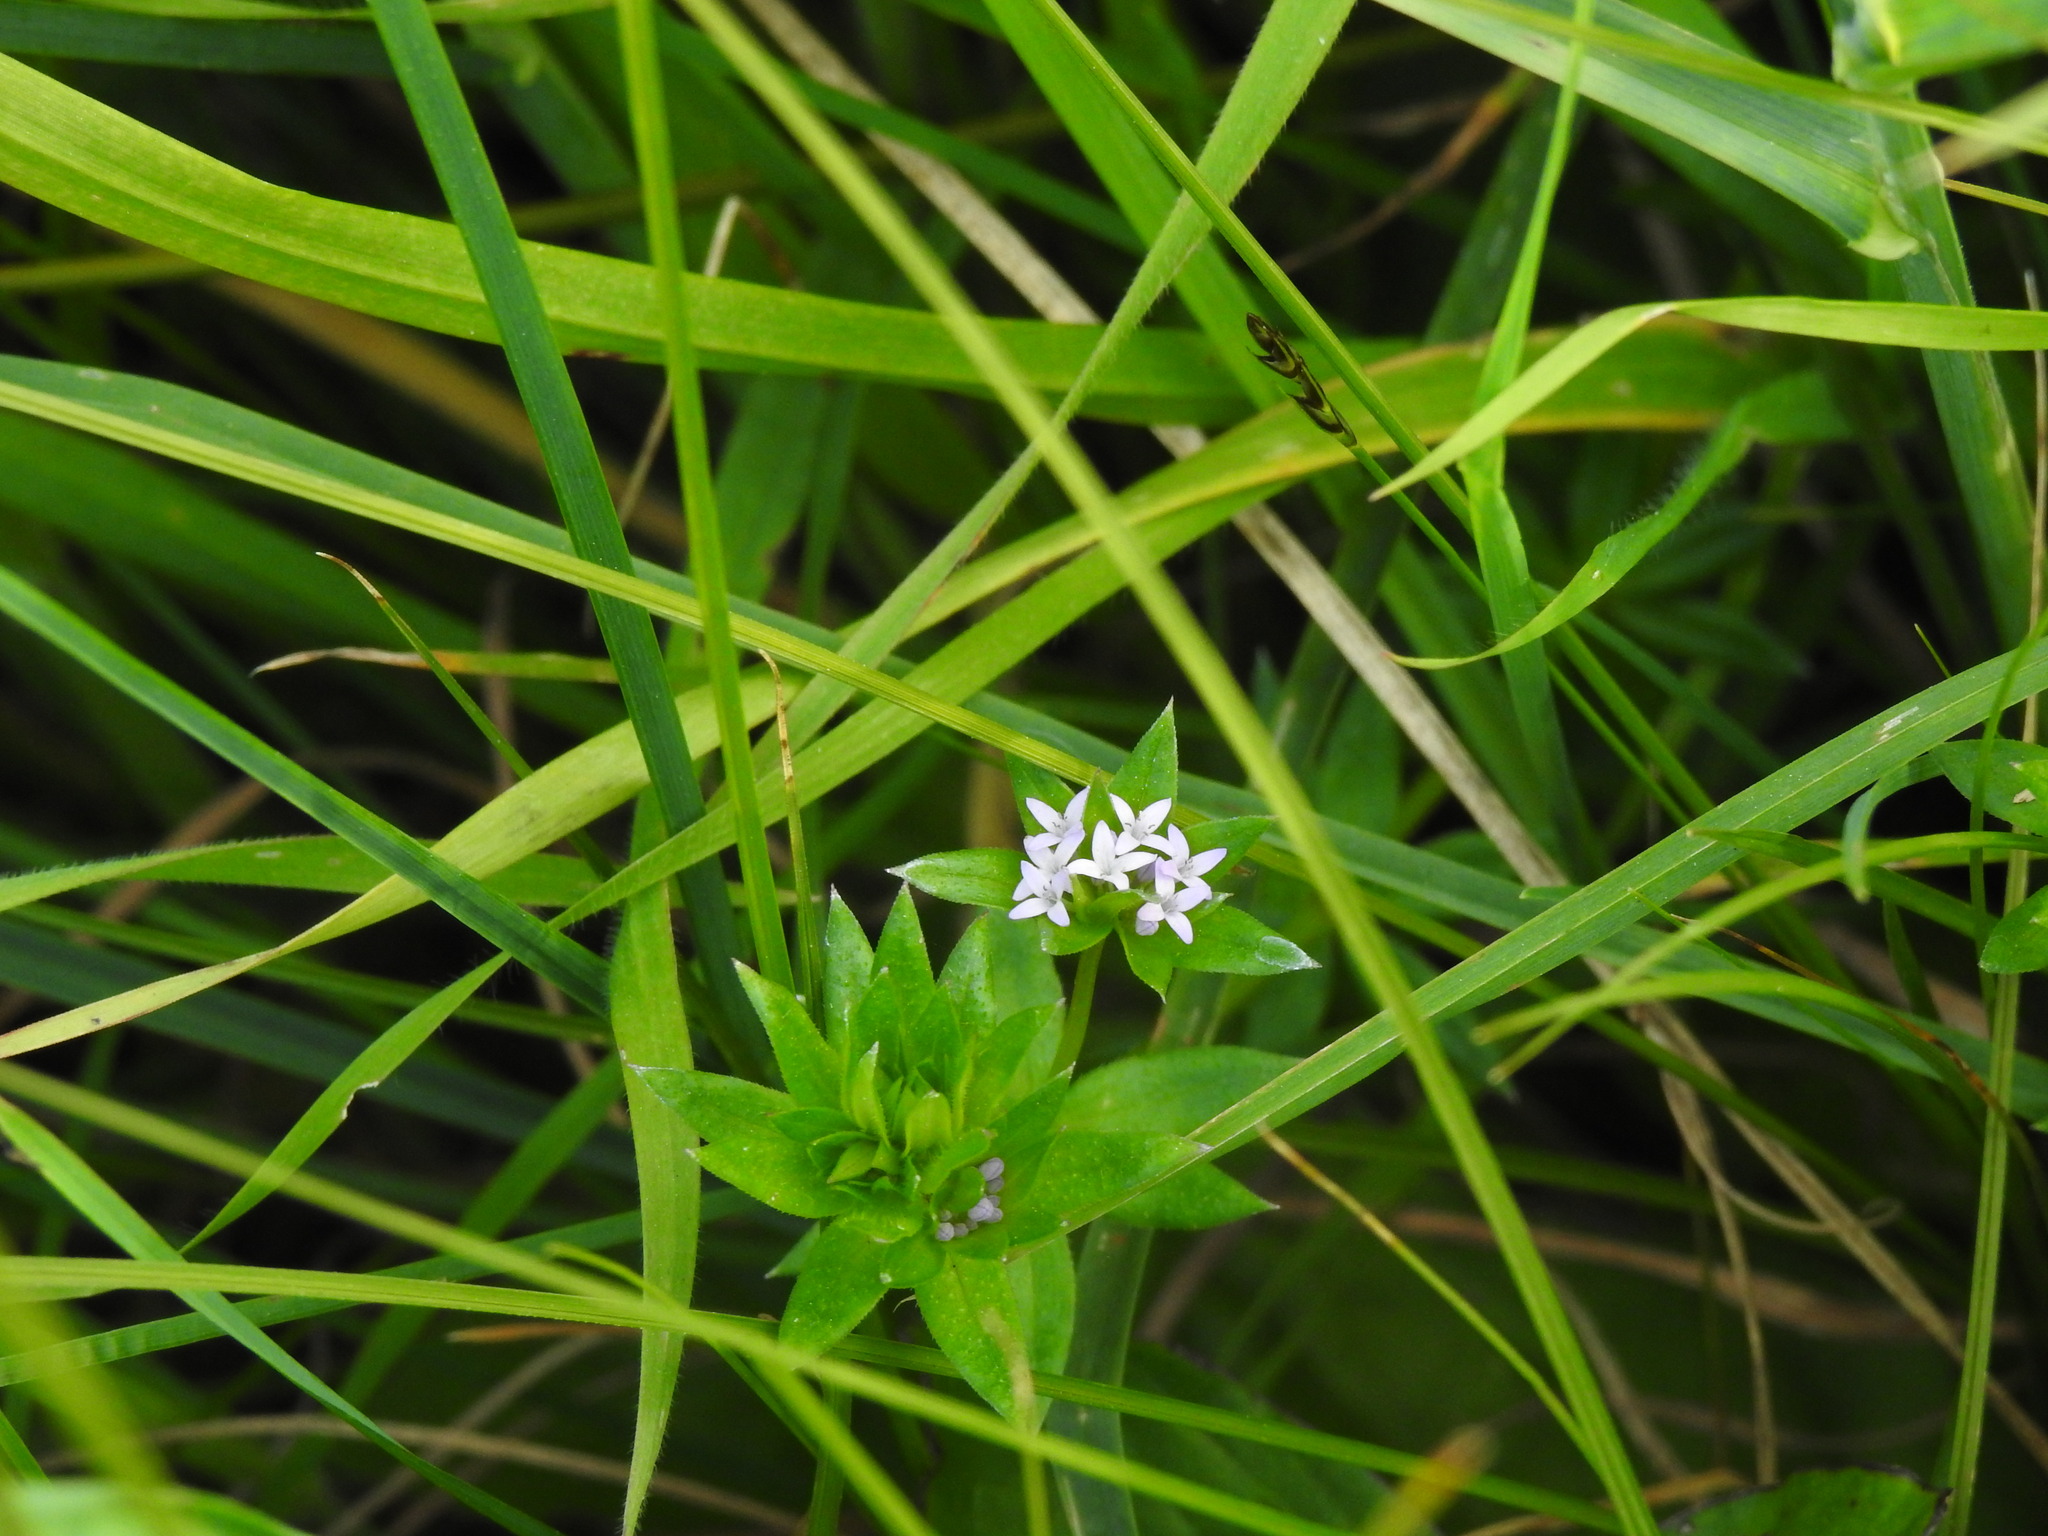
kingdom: Plantae
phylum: Tracheophyta
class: Magnoliopsida
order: Gentianales
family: Rubiaceae
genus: Sherardia
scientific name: Sherardia arvensis
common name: Field madder
